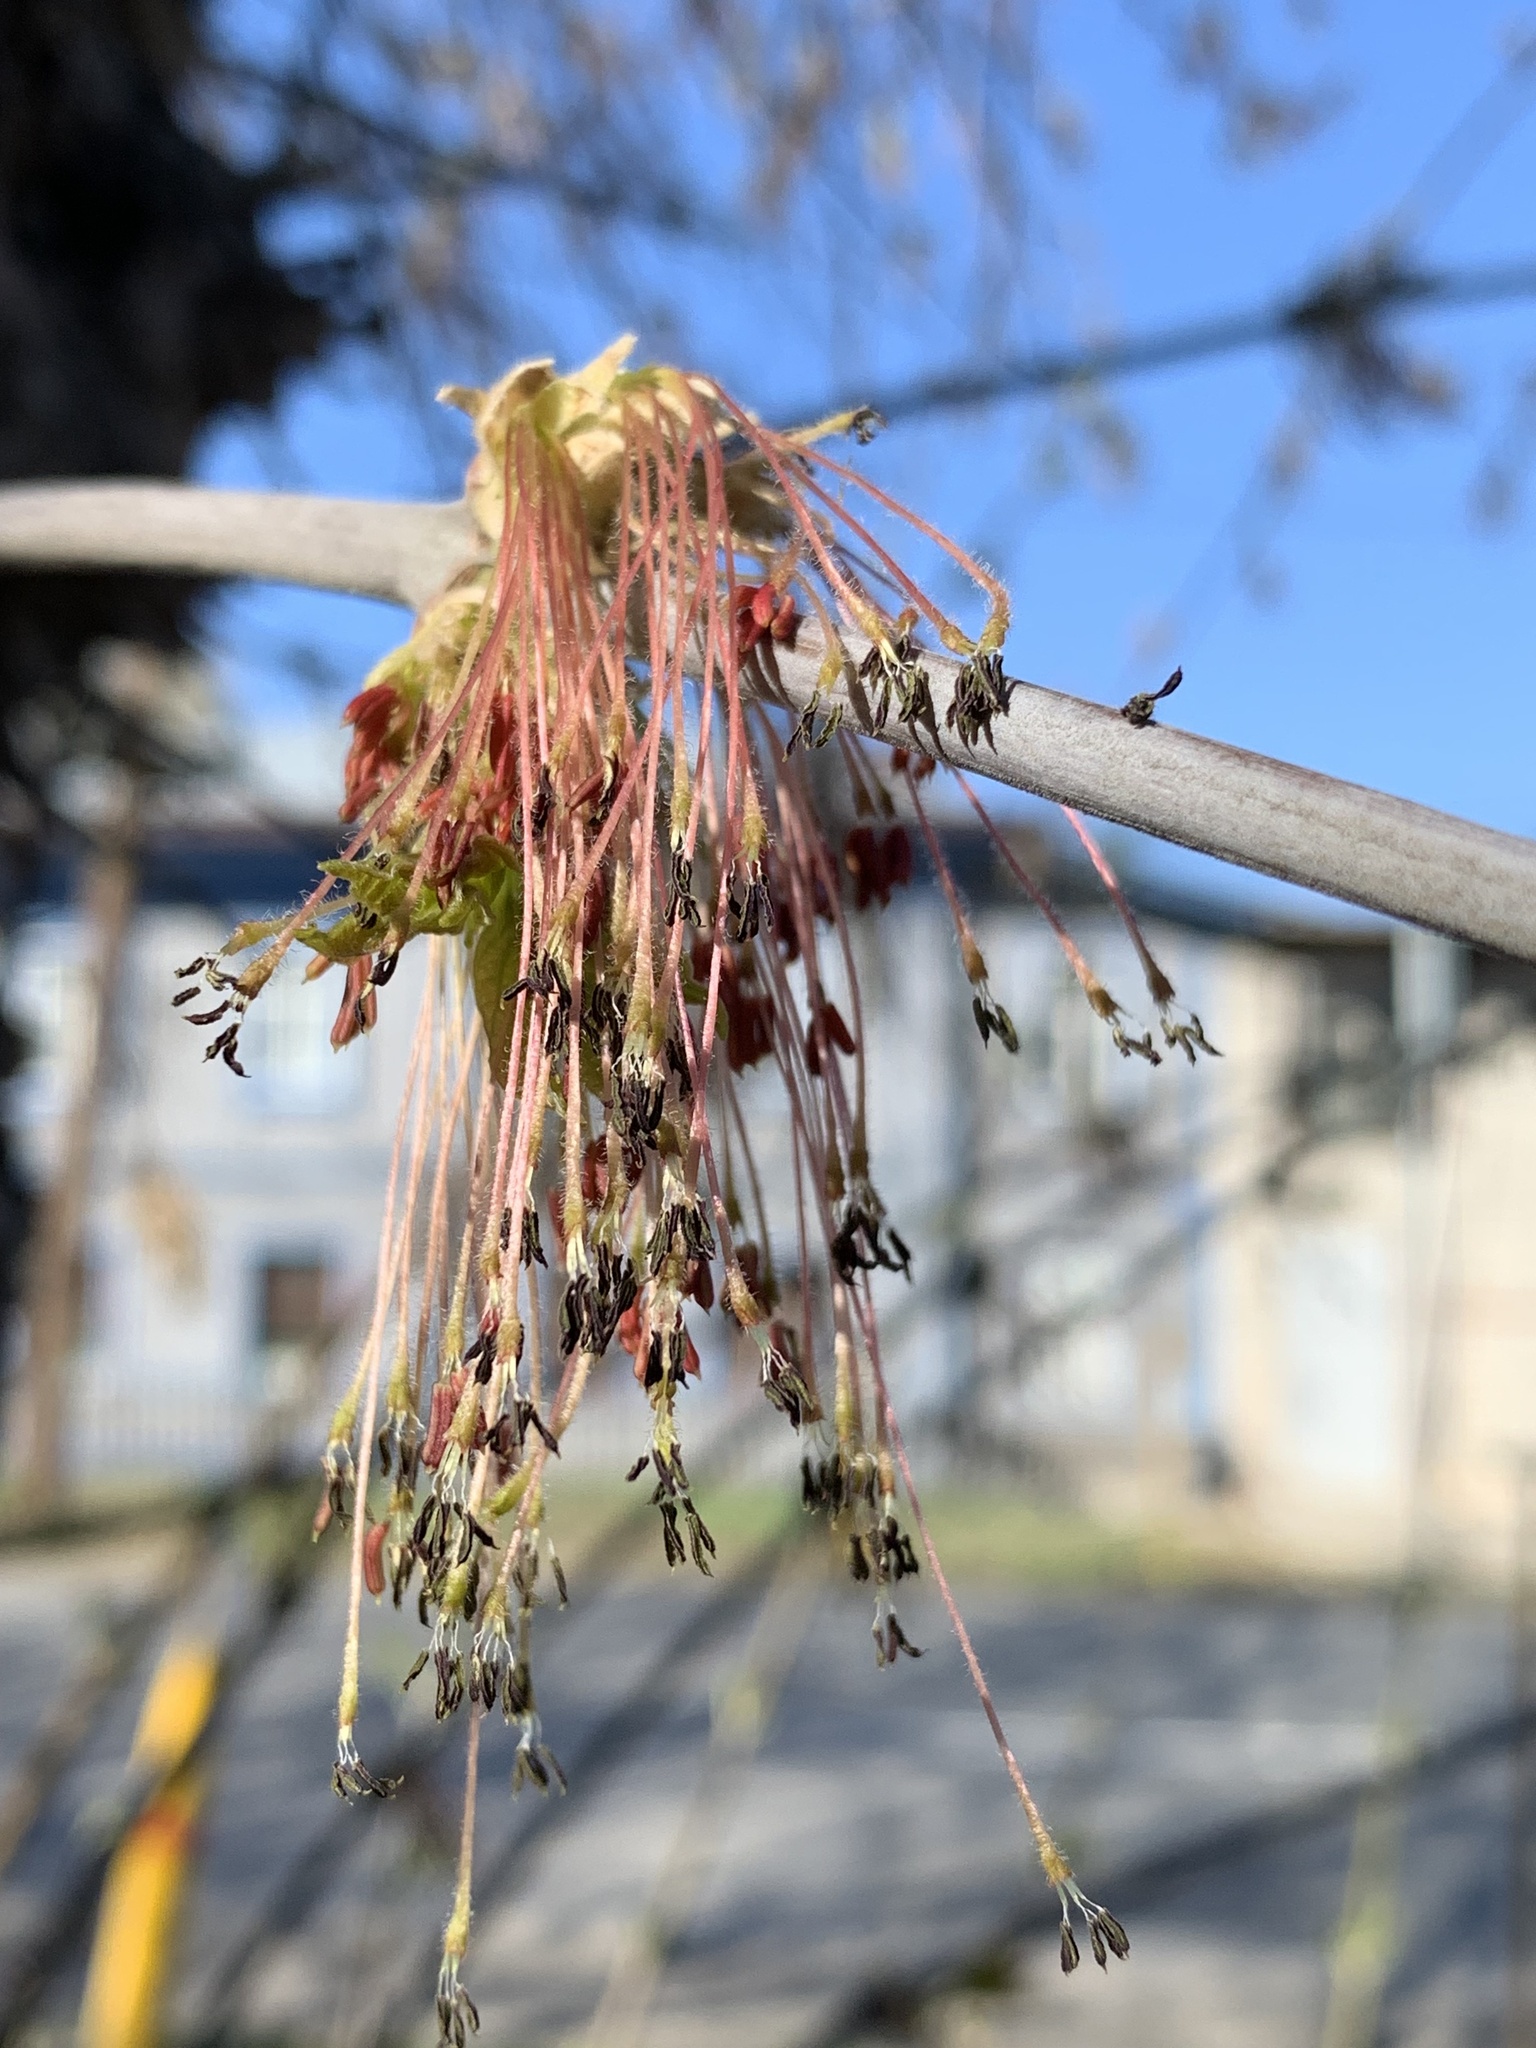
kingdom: Plantae
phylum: Tracheophyta
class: Magnoliopsida
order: Sapindales
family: Sapindaceae
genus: Acer
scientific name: Acer negundo
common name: Ashleaf maple
